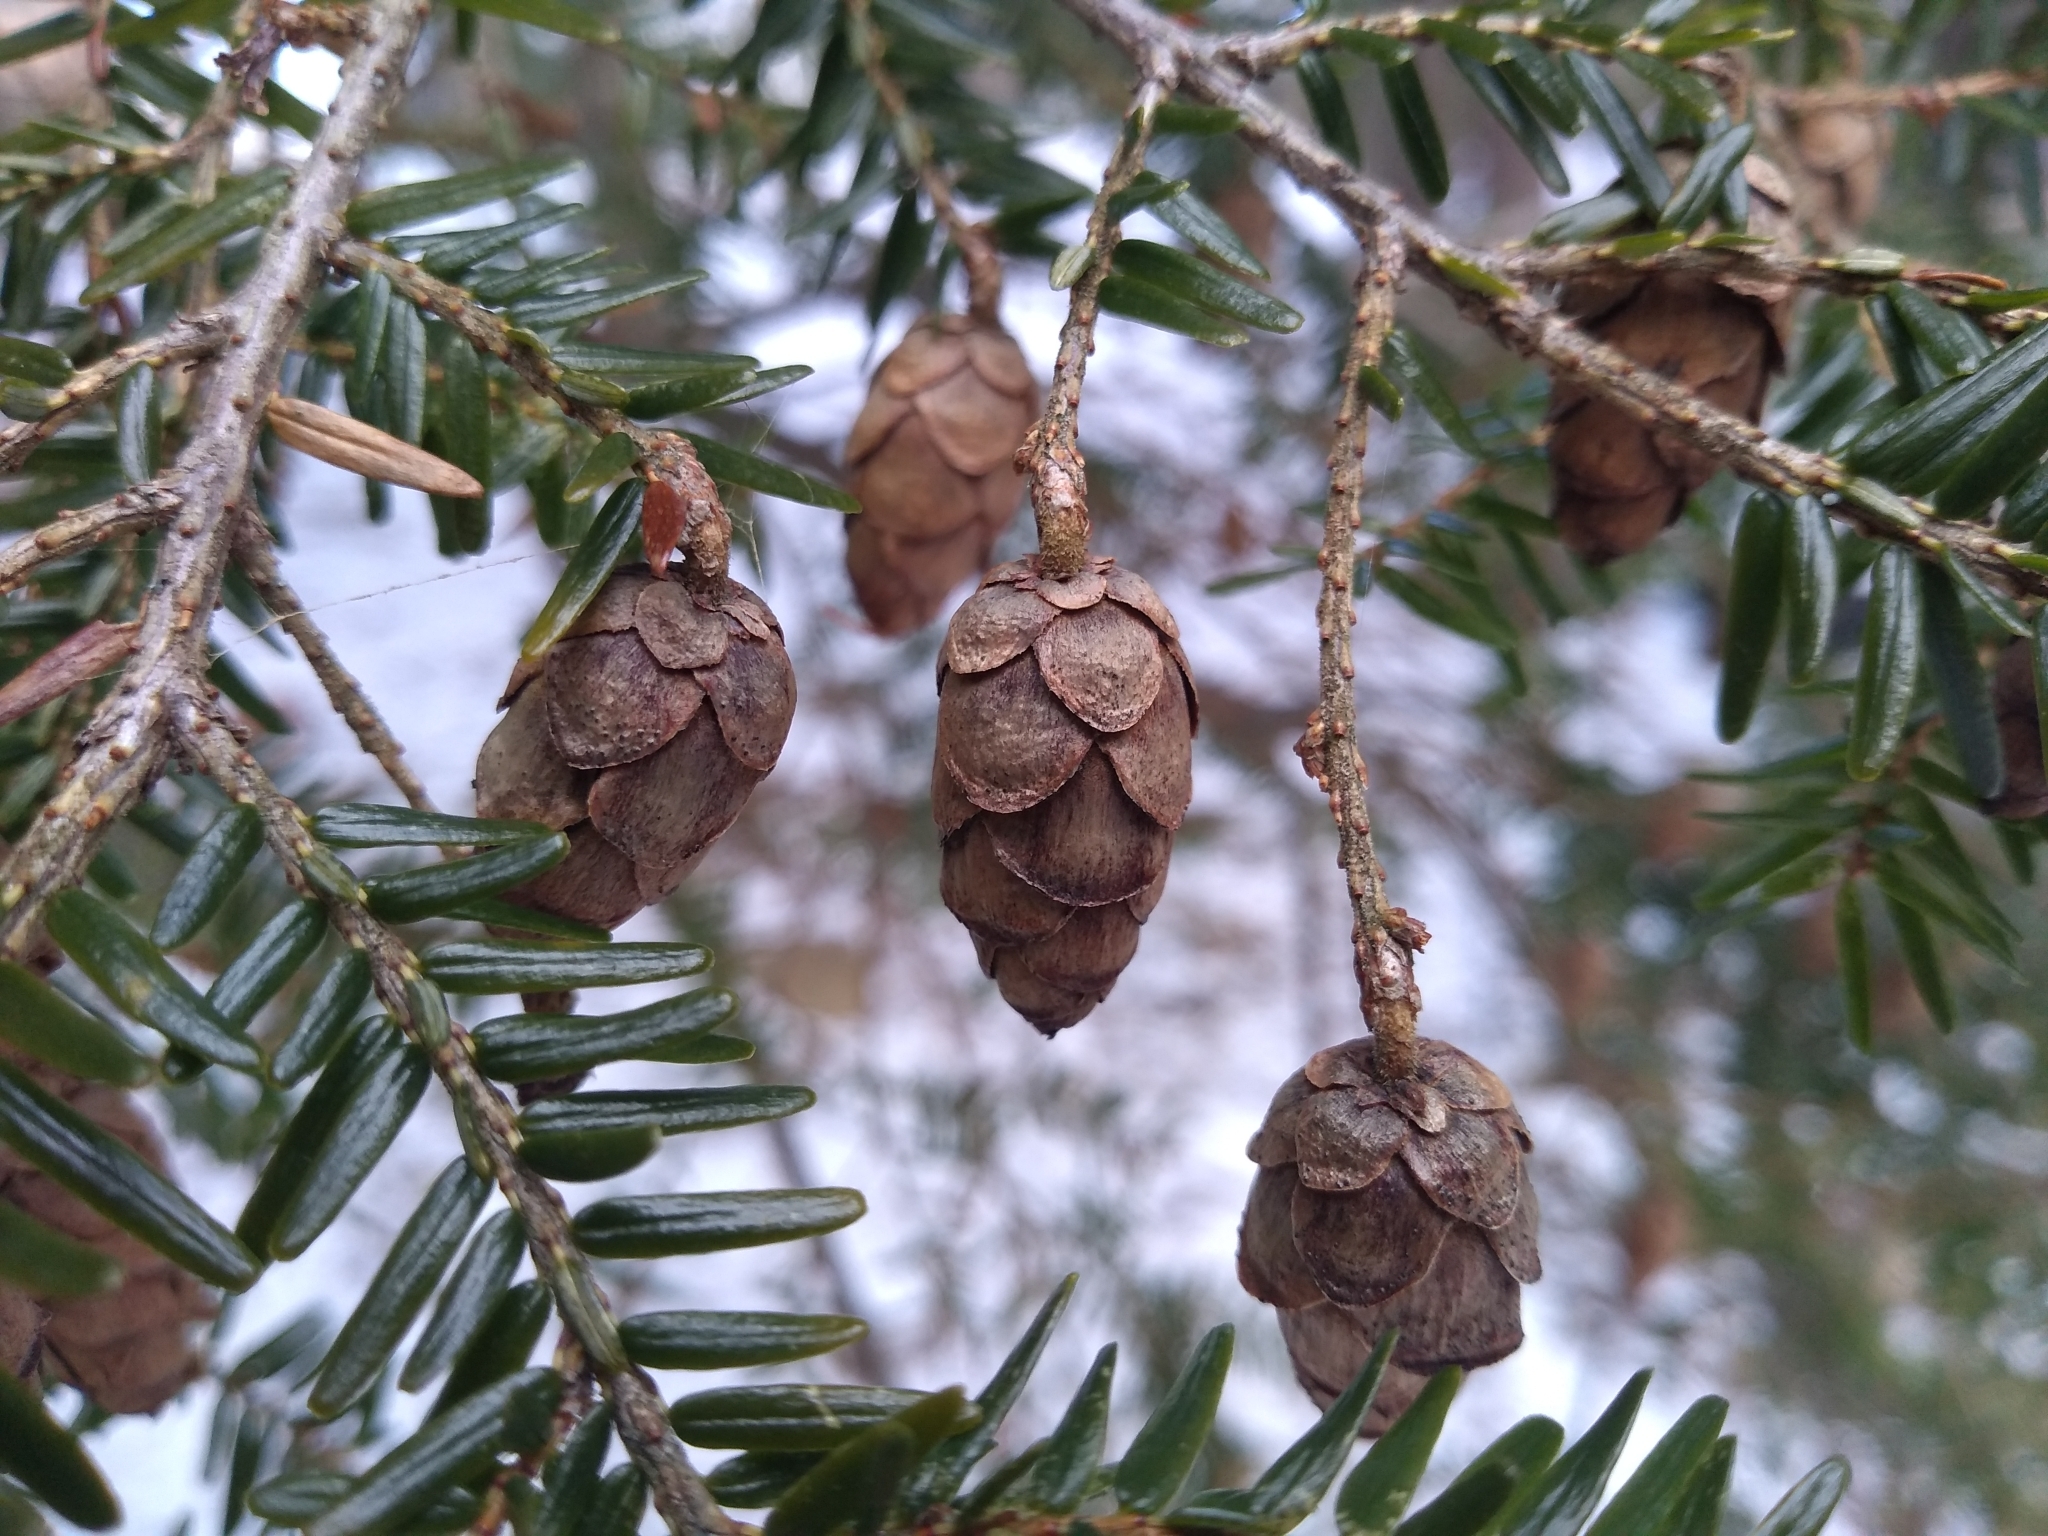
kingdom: Plantae
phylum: Tracheophyta
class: Pinopsida
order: Pinales
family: Pinaceae
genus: Tsuga
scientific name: Tsuga canadensis
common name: Eastern hemlock
